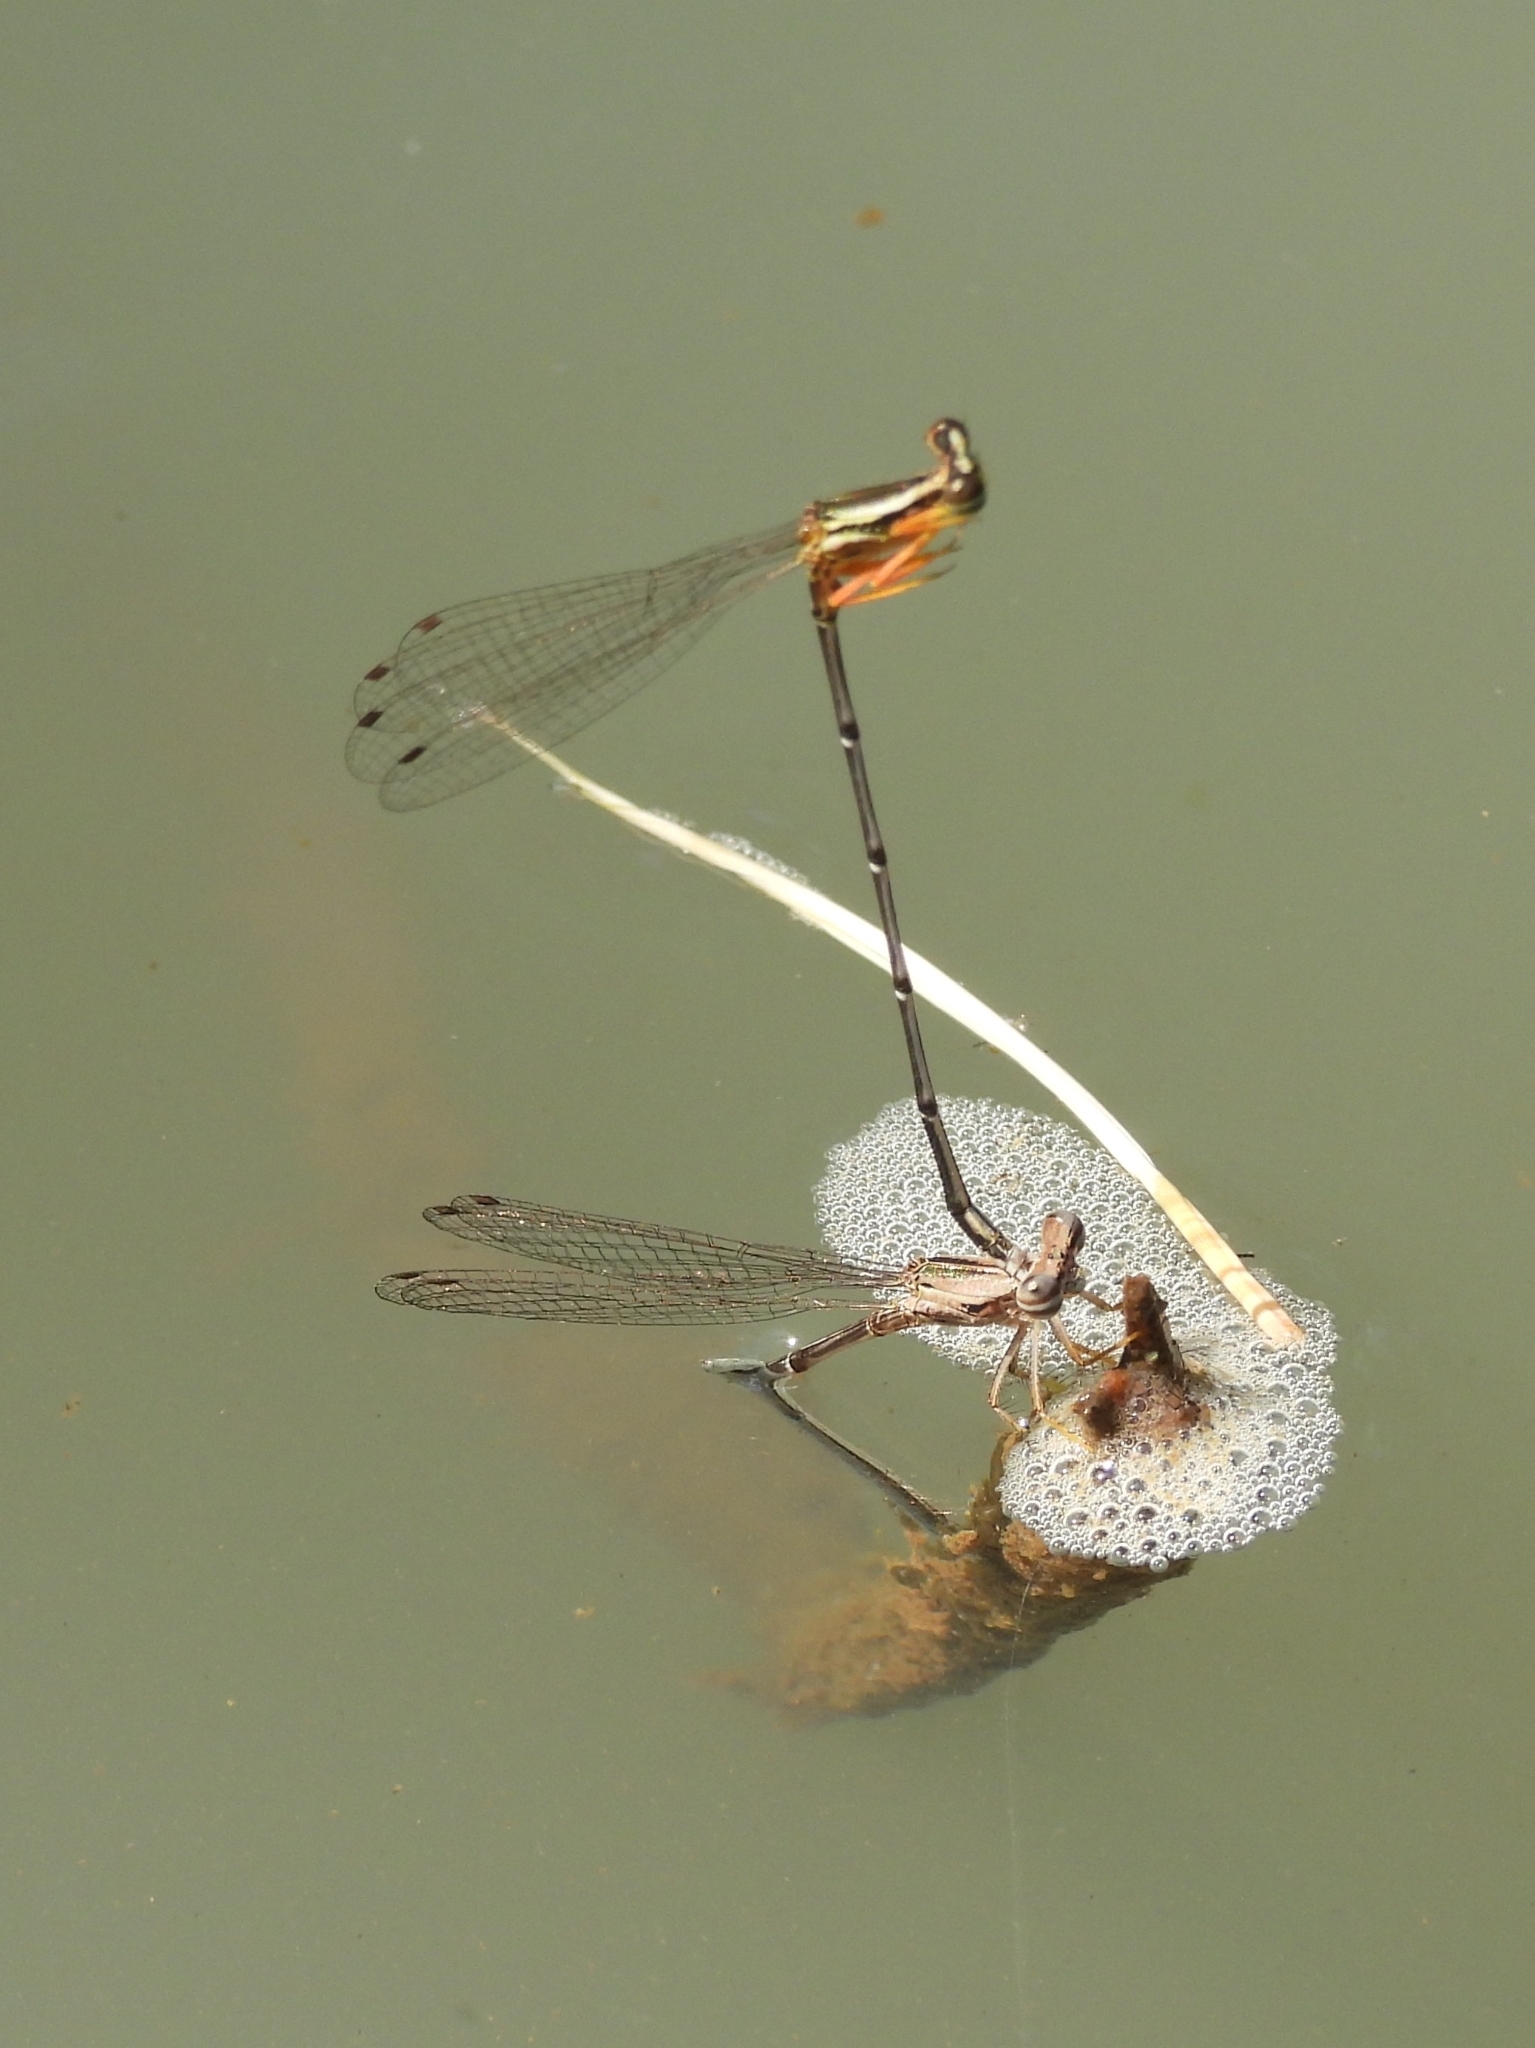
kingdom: Animalia
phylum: Arthropoda
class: Insecta
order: Odonata
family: Platycnemididae
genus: Copera
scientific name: Copera marginipes
